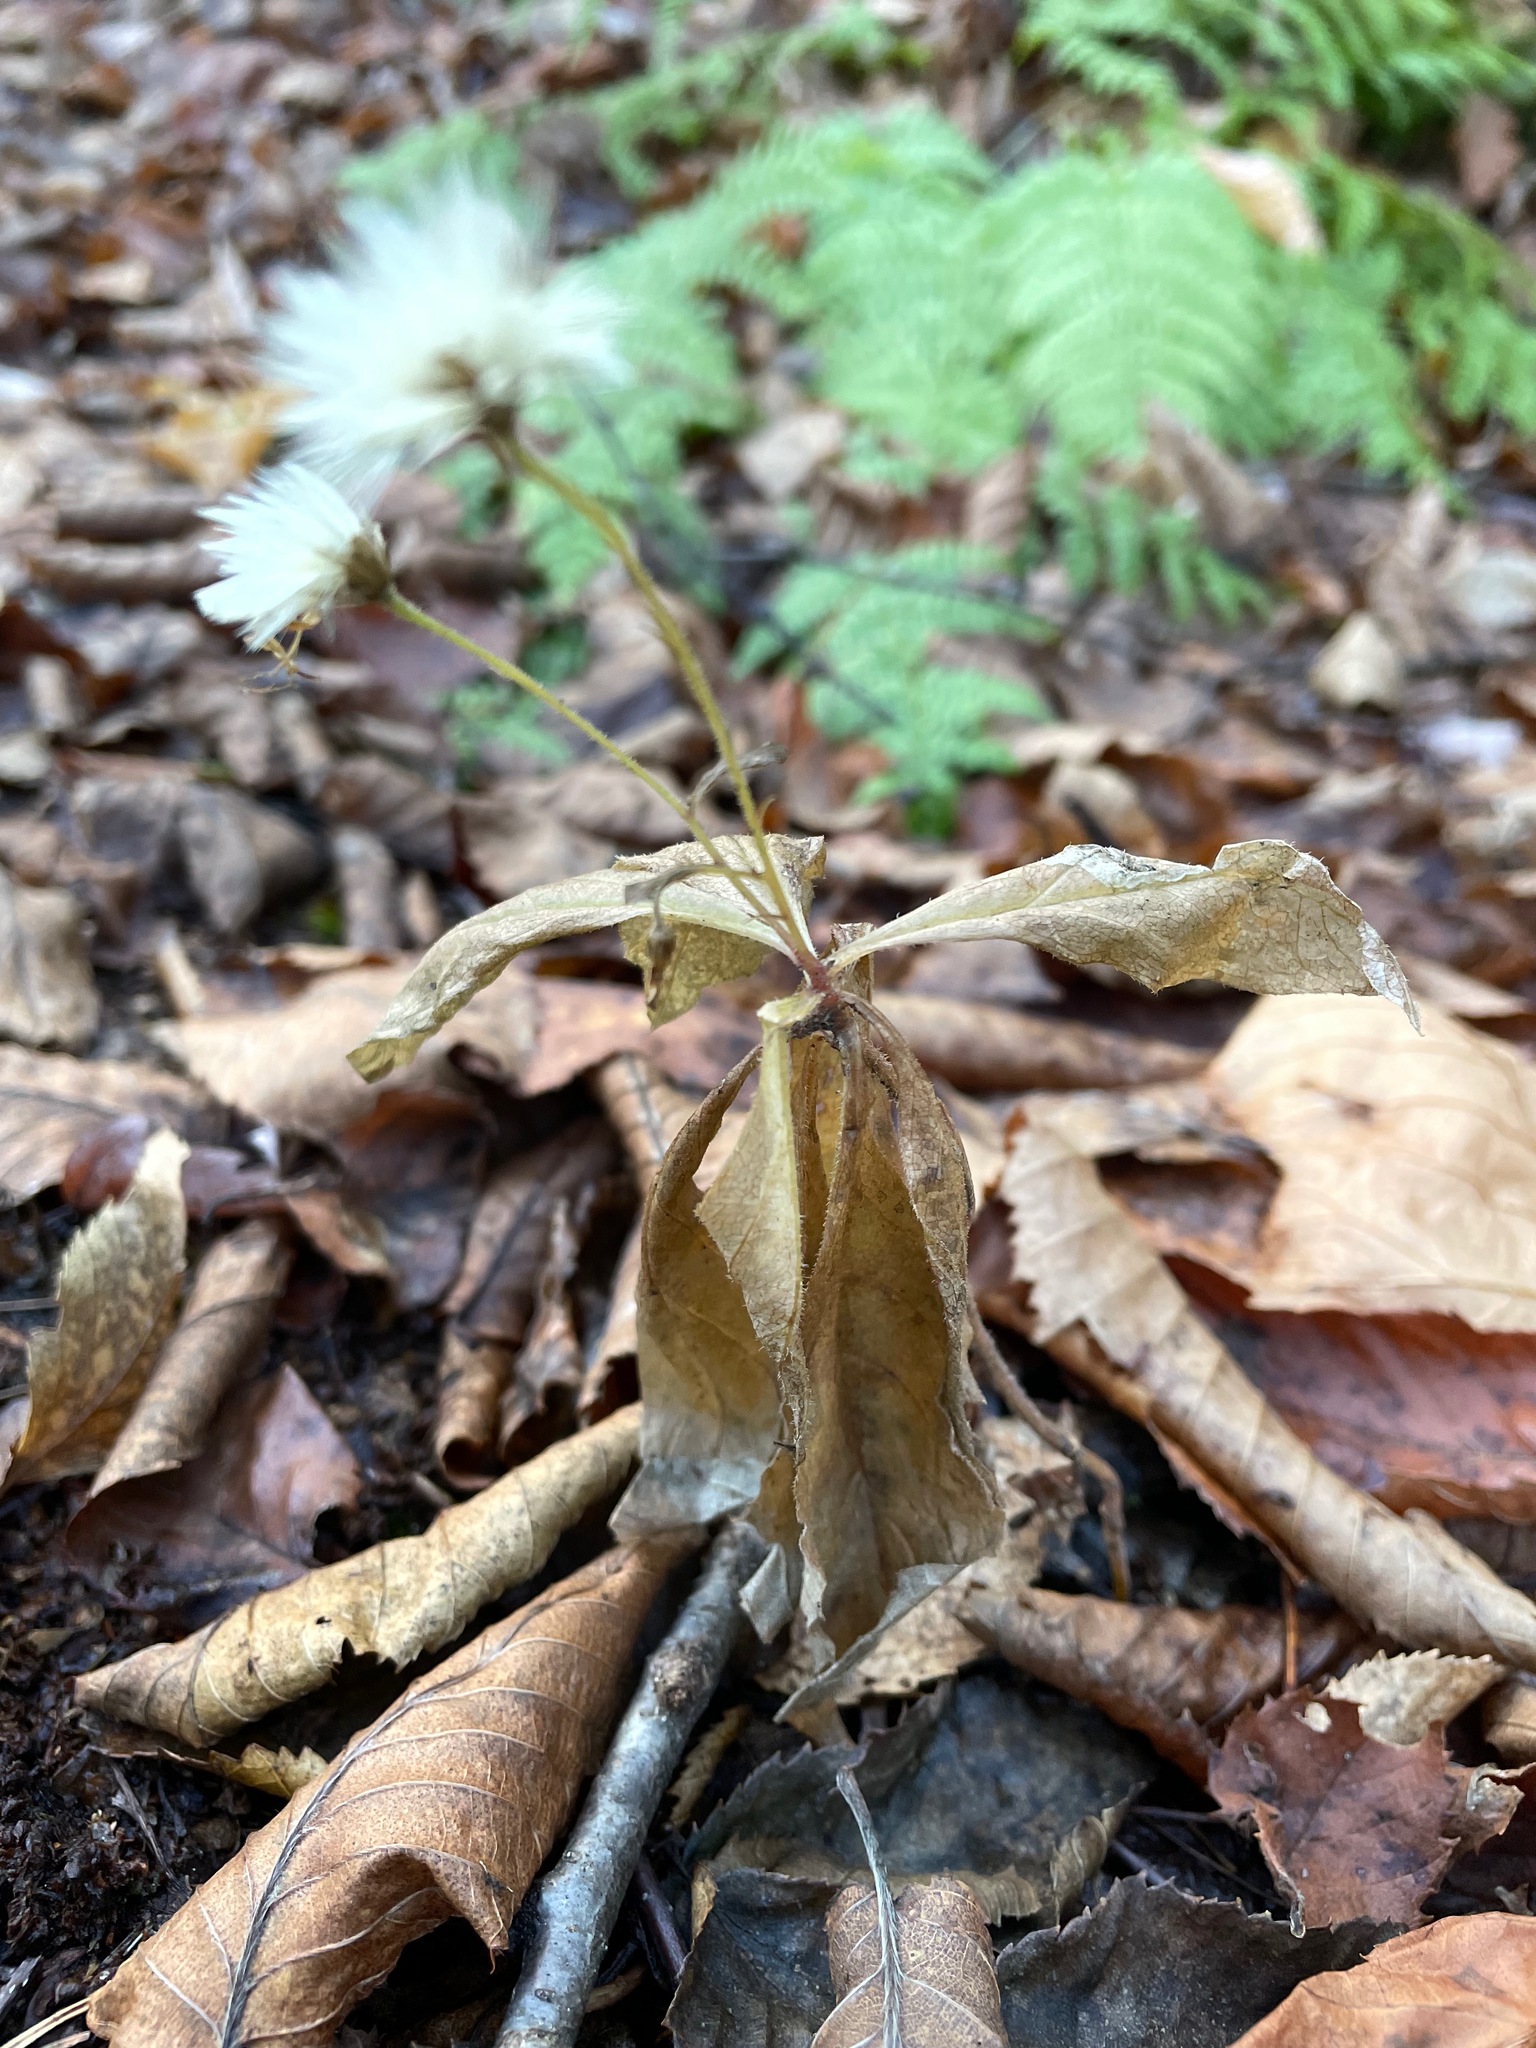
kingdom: Plantae
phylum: Tracheophyta
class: Magnoliopsida
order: Asterales
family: Asteraceae
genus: Oclemena
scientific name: Oclemena acuminata
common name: Mountain aster
